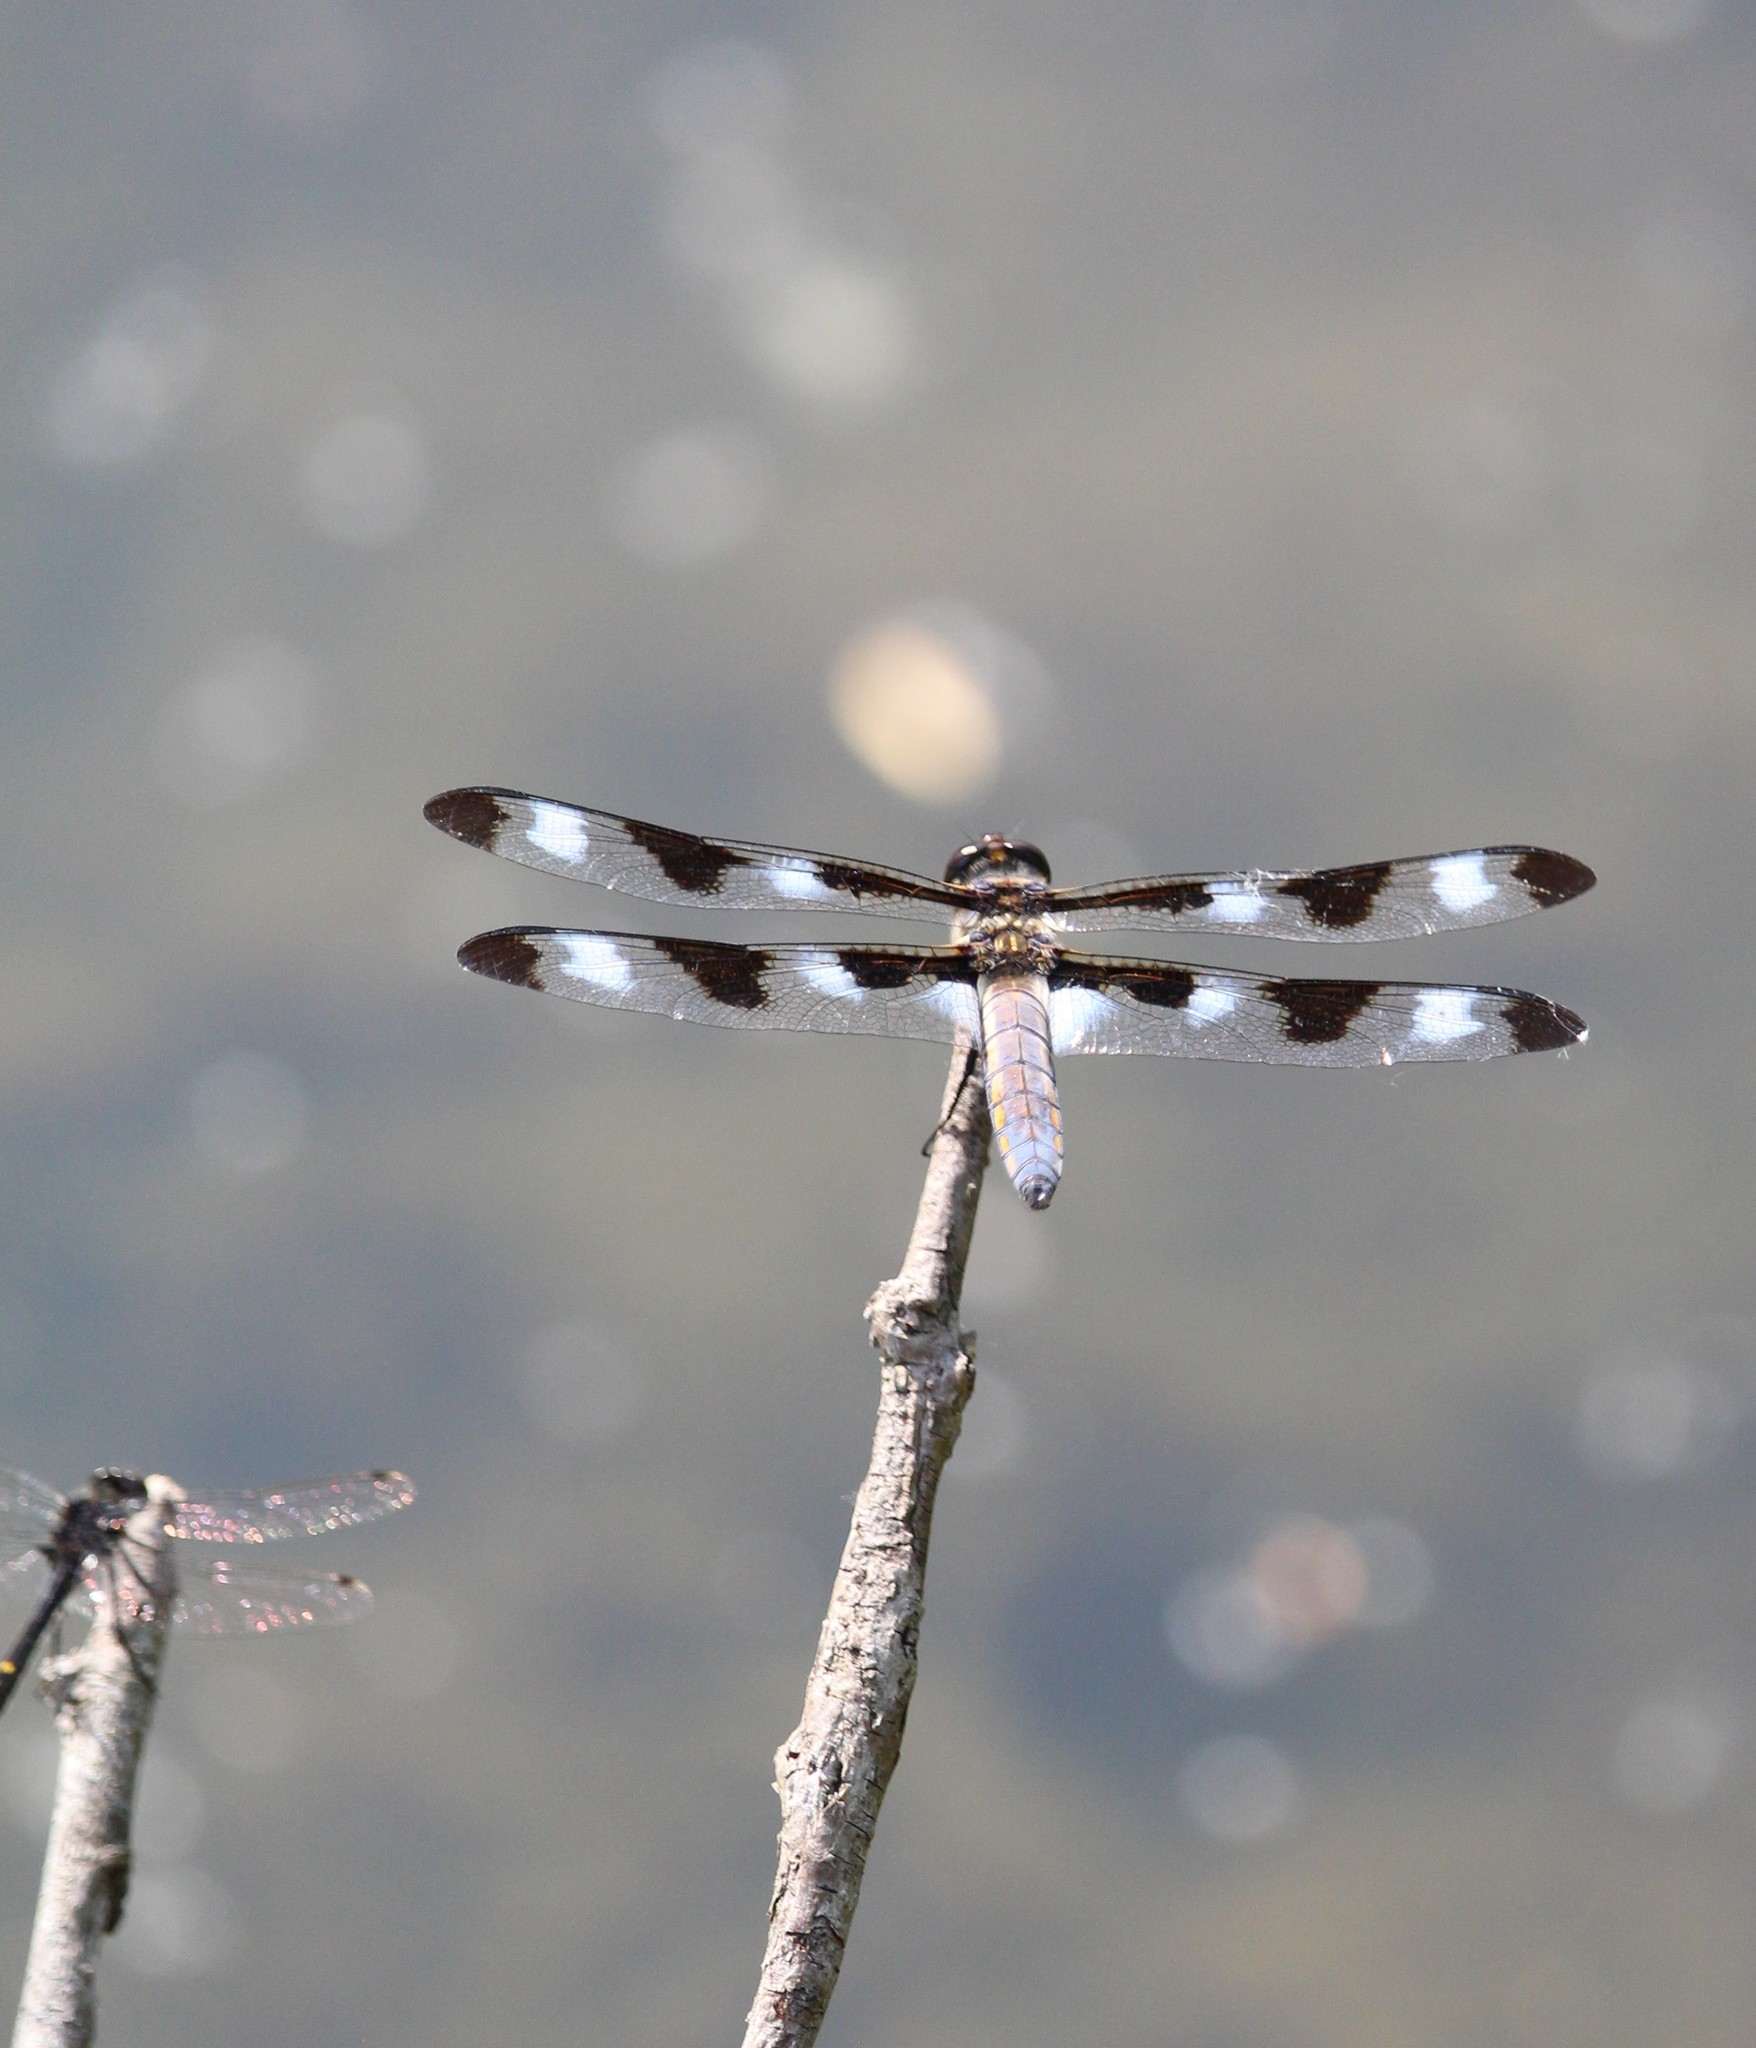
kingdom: Animalia
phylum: Arthropoda
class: Insecta
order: Odonata
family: Libellulidae
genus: Libellula
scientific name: Libellula pulchella
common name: Twelve-spotted skimmer
